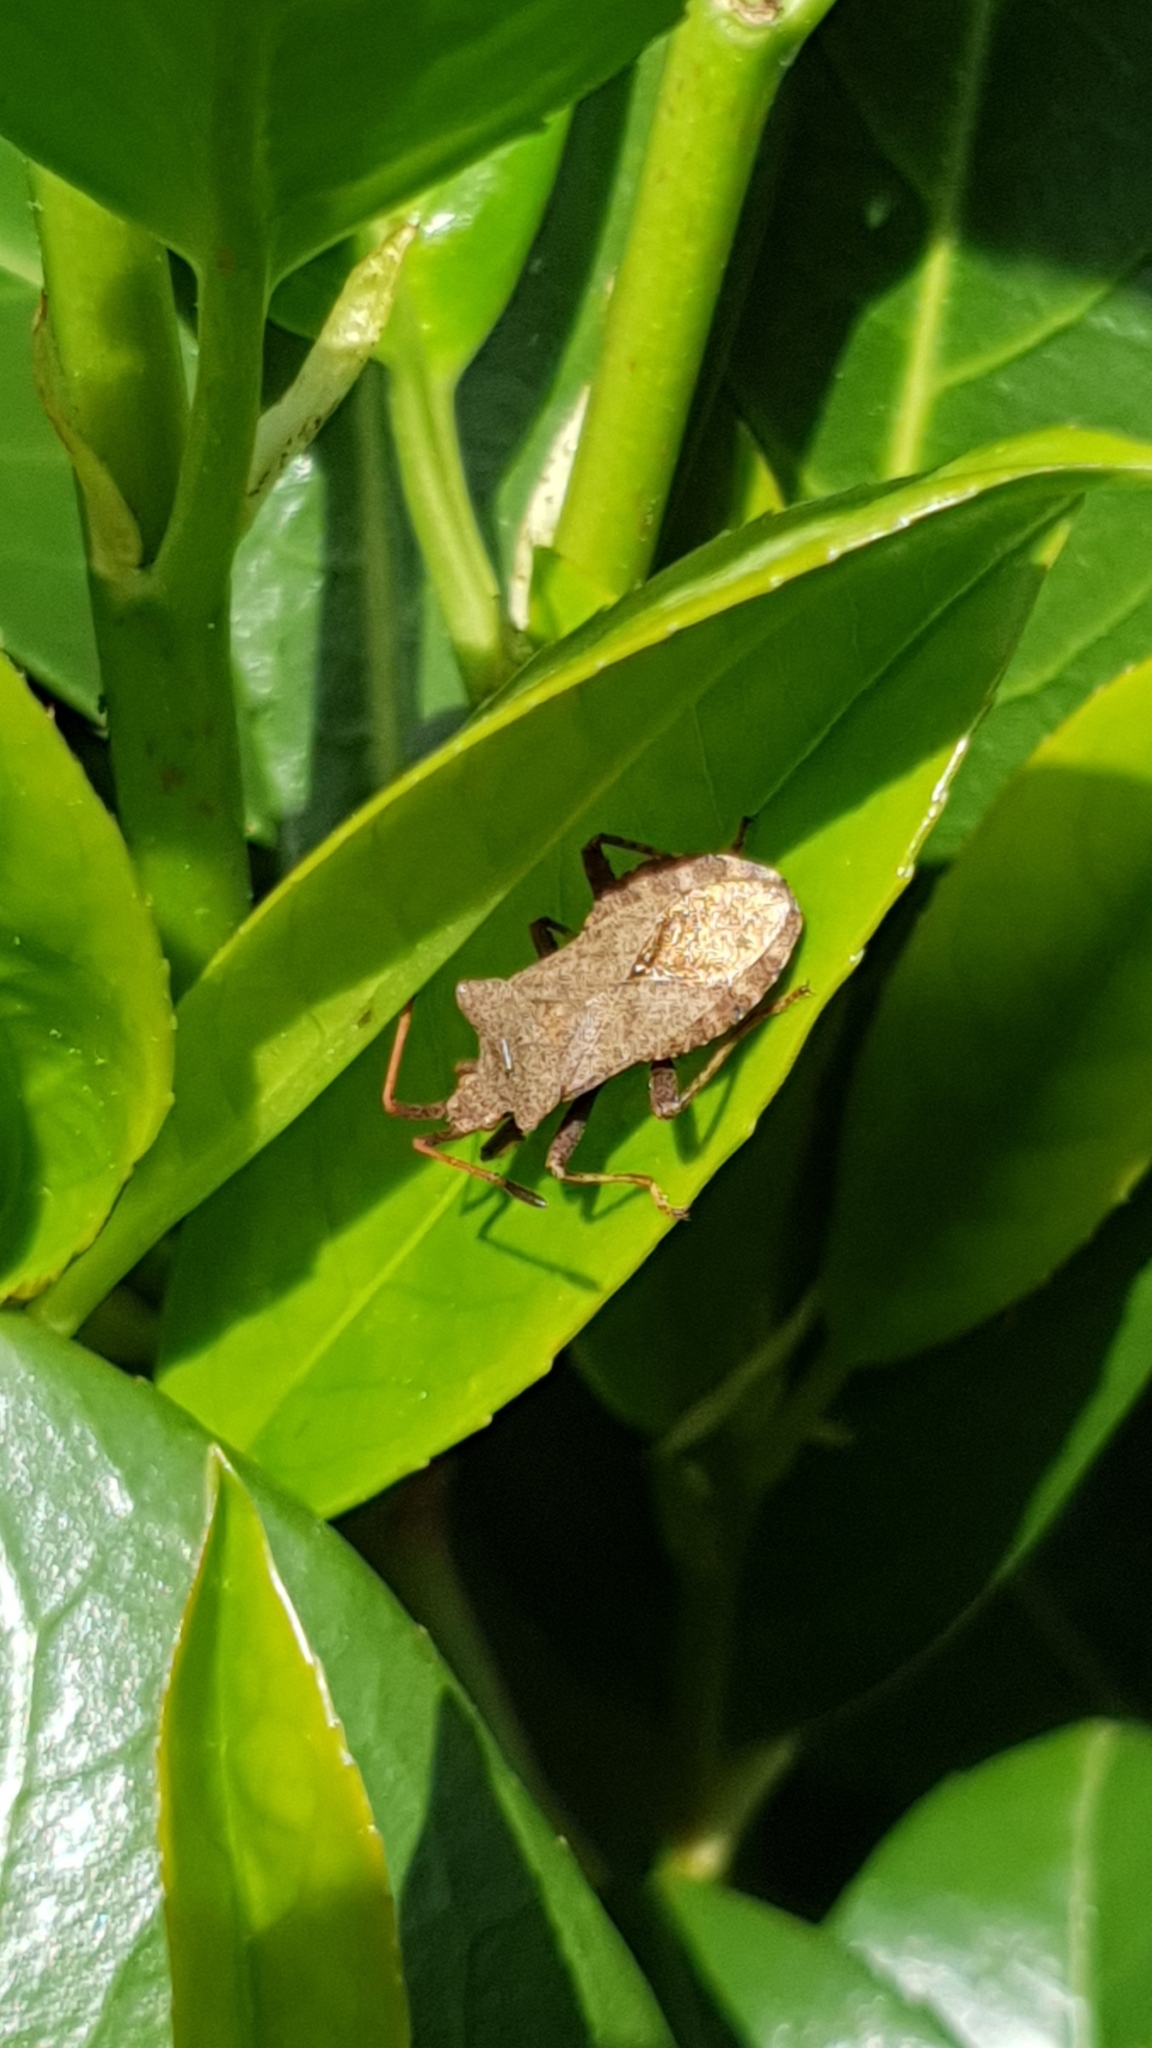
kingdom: Animalia
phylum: Arthropoda
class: Insecta
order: Hemiptera
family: Coreidae
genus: Coreus
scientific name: Coreus marginatus
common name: Dock bug
